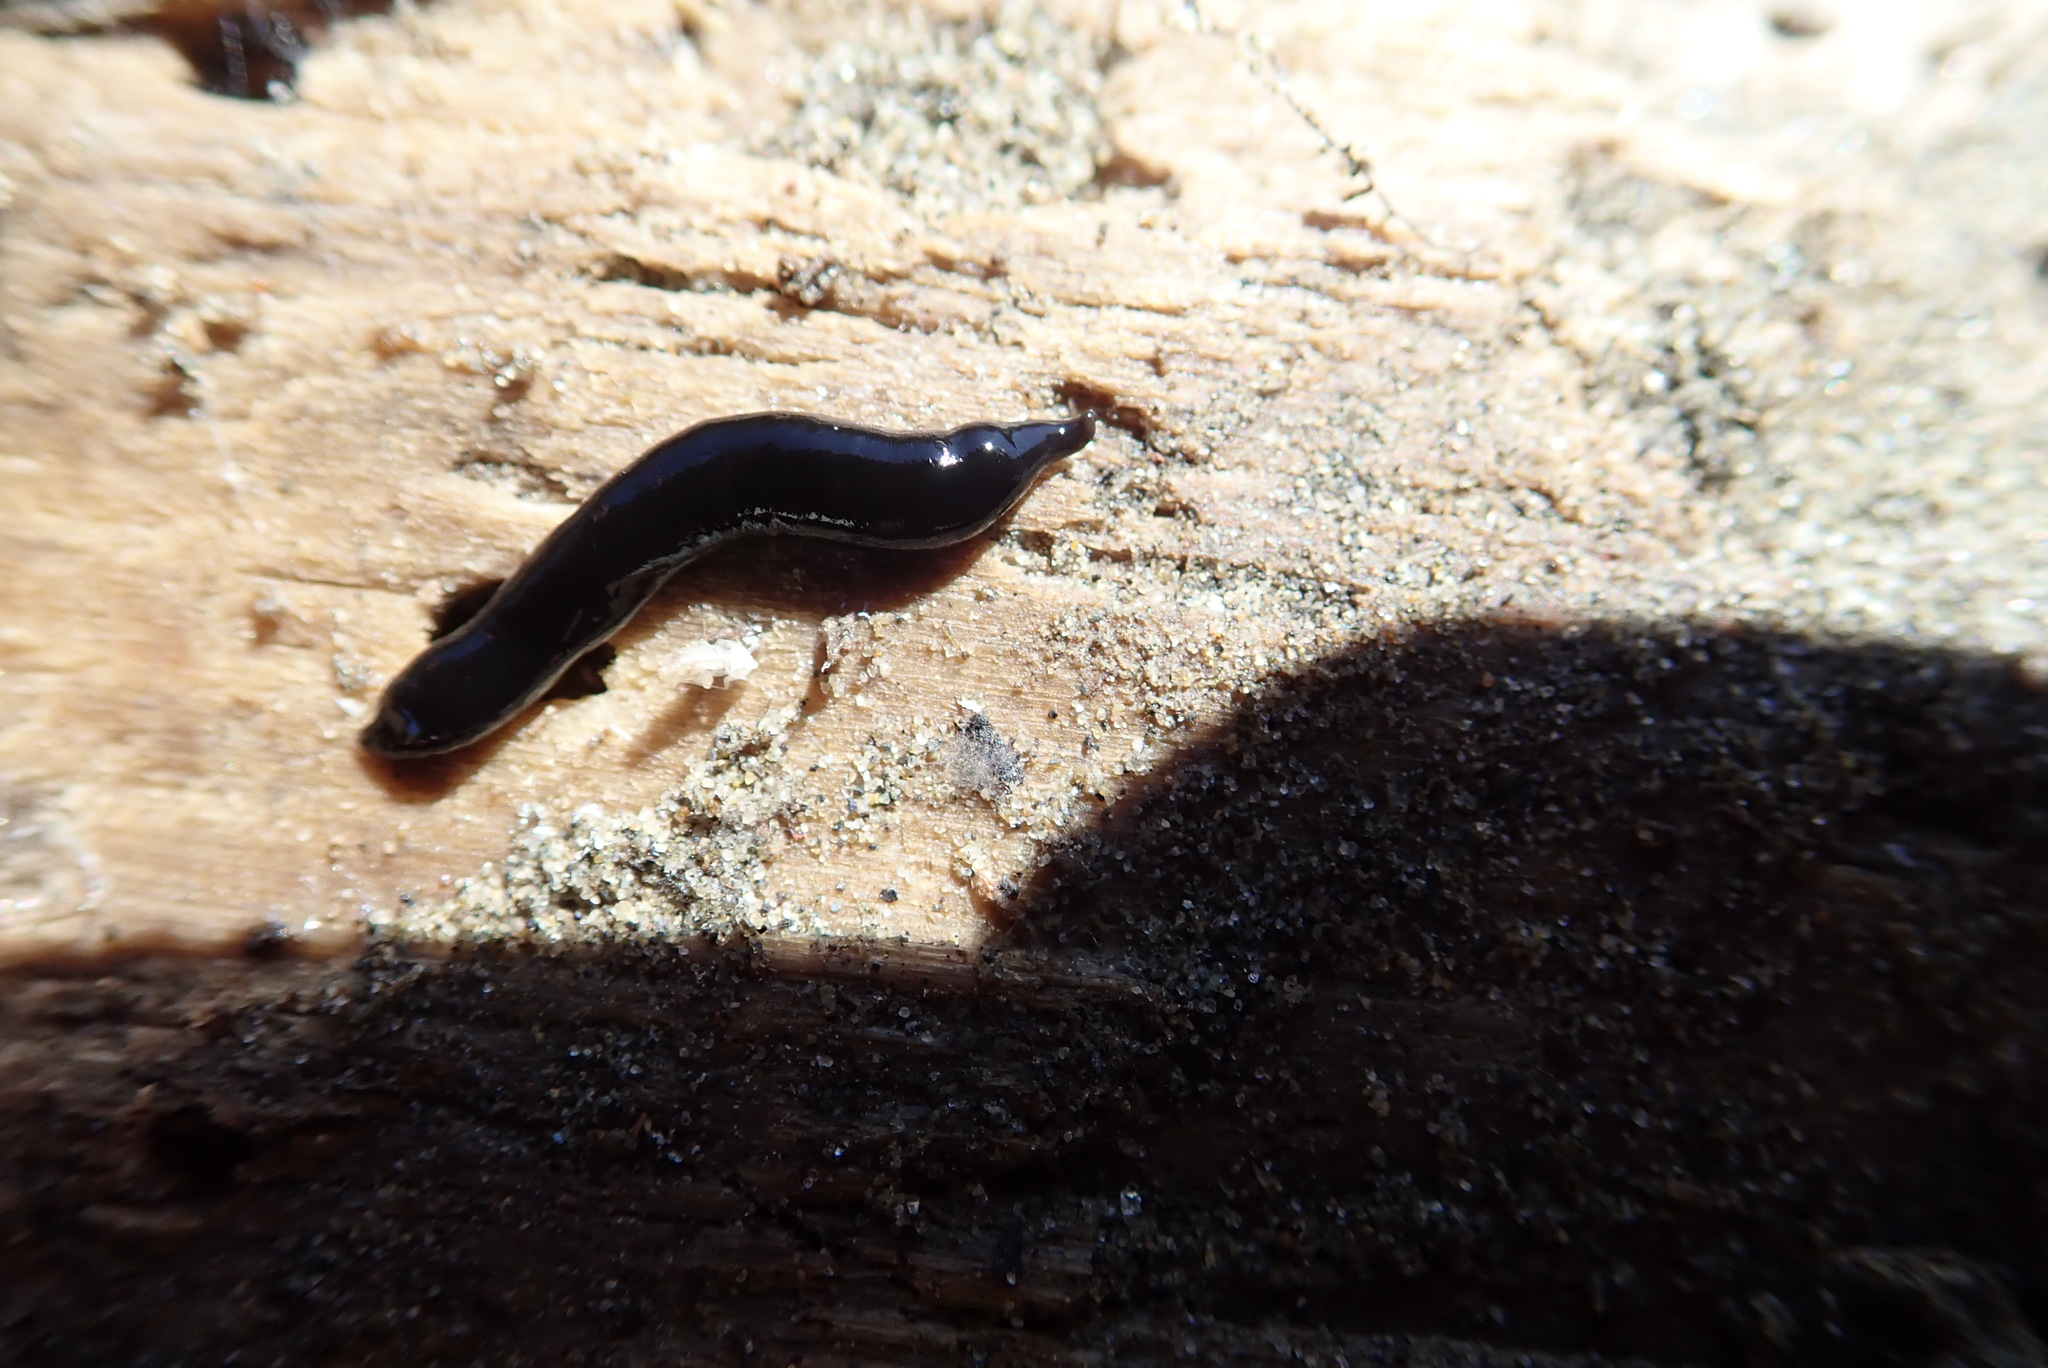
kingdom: Animalia
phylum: Platyhelminthes
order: Tricladida
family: Geoplanidae
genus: Kontikia
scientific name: Kontikia atrata
